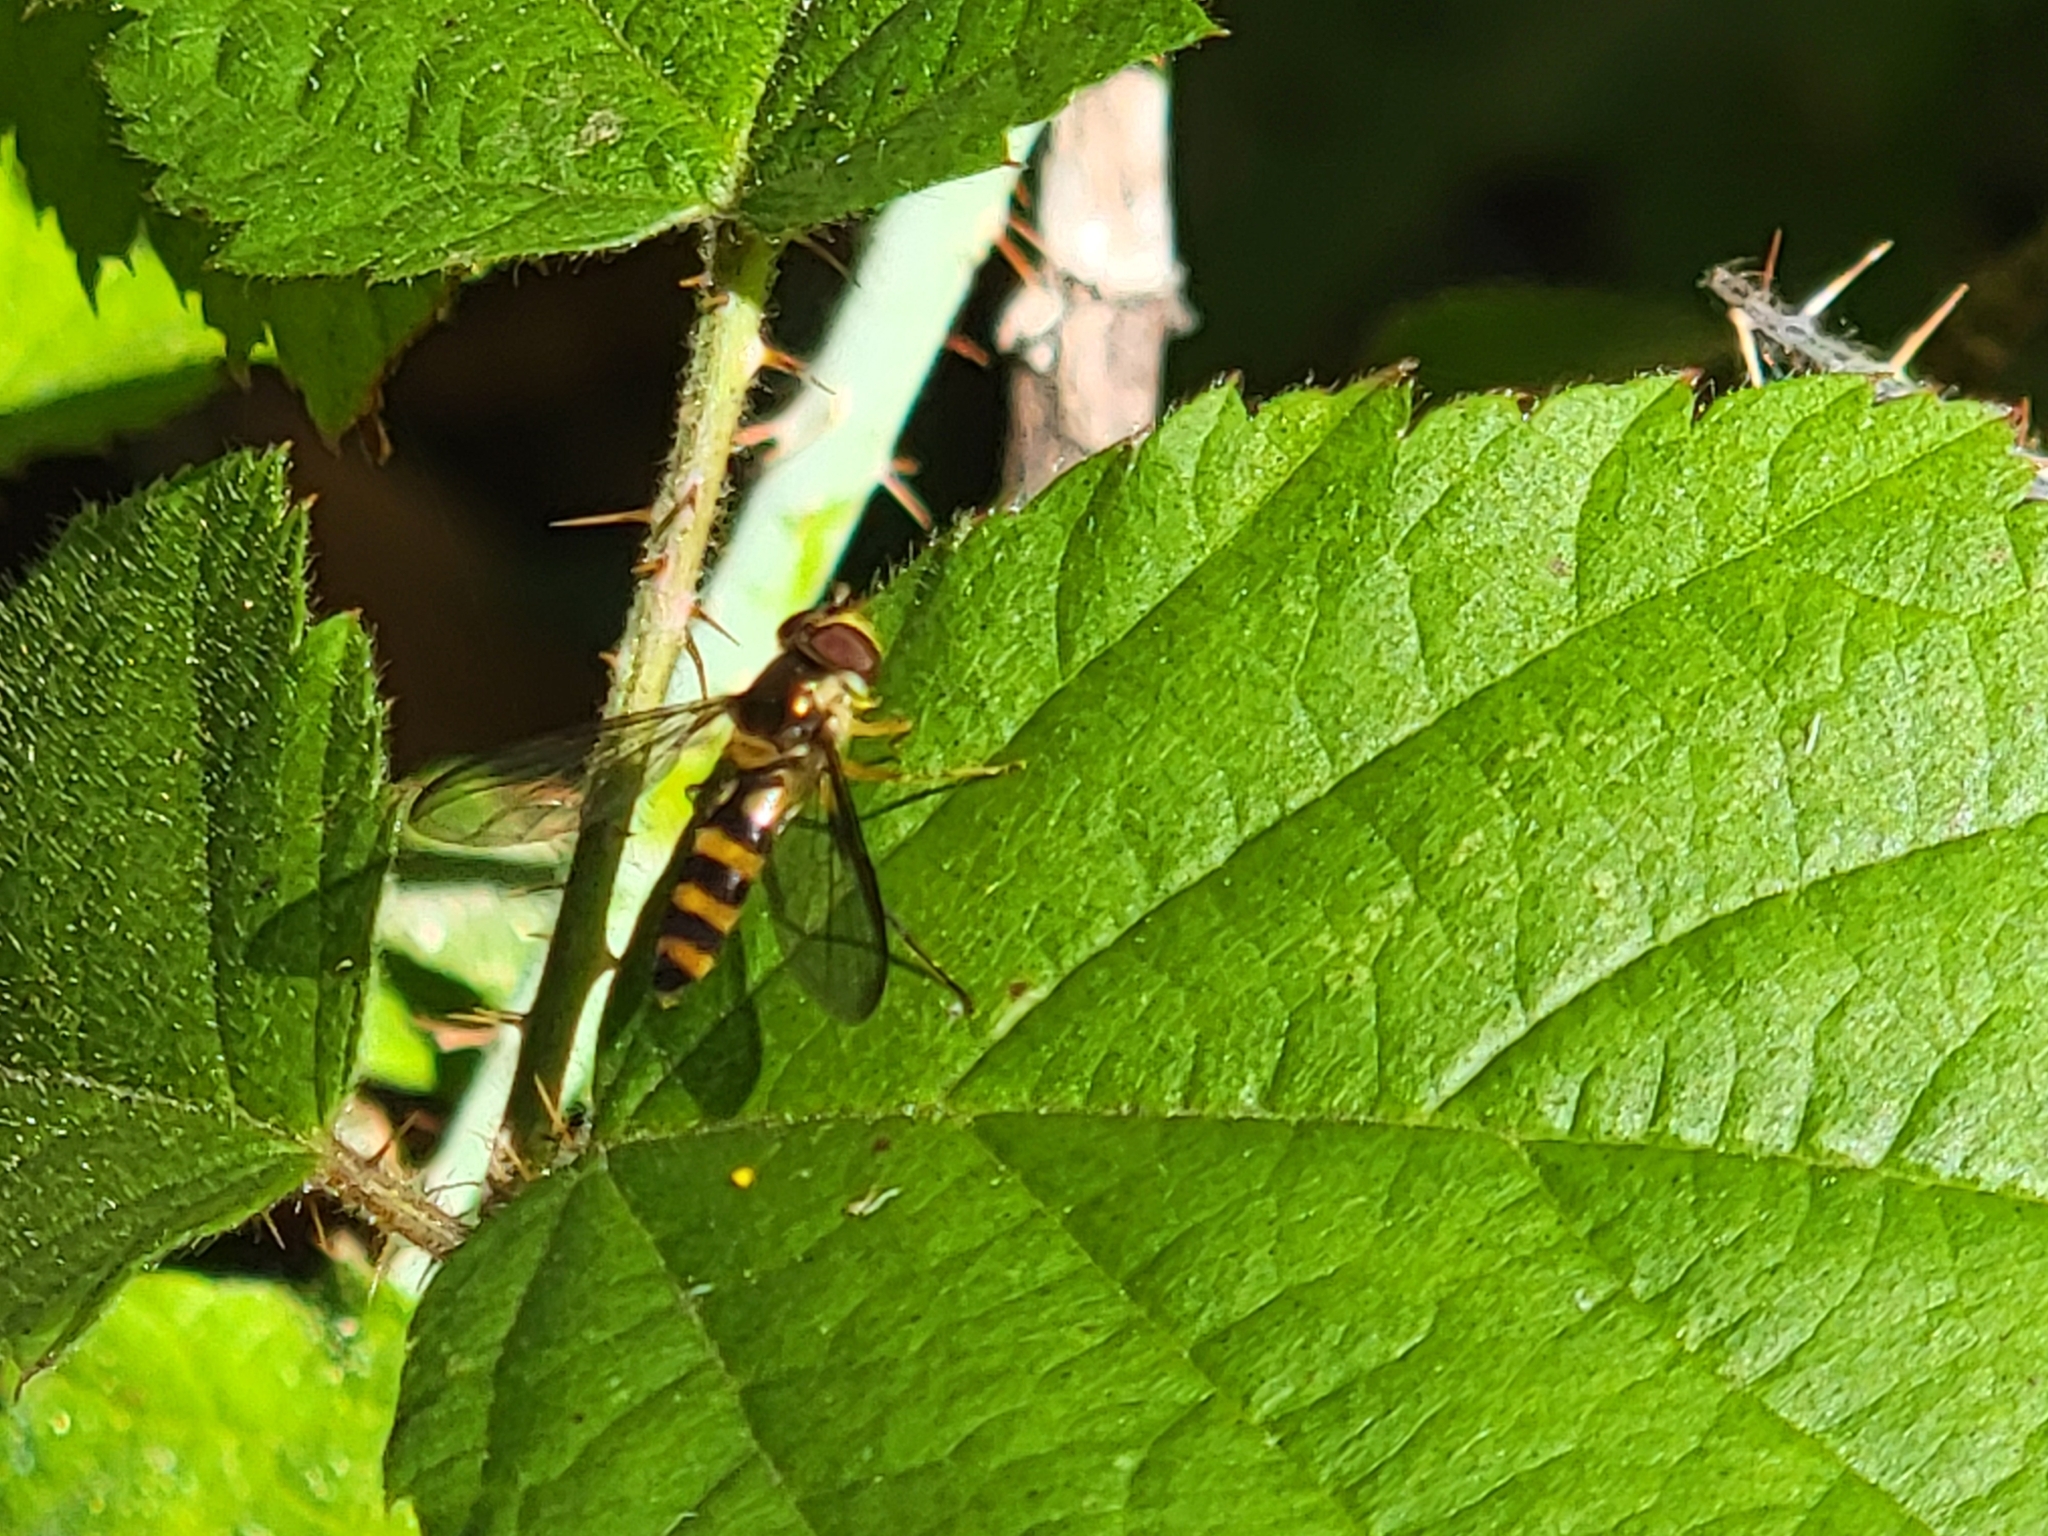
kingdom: Animalia
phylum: Arthropoda
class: Insecta
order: Diptera
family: Syrphidae
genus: Meliscaeva
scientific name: Meliscaeva cinctella
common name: American thintail fly
